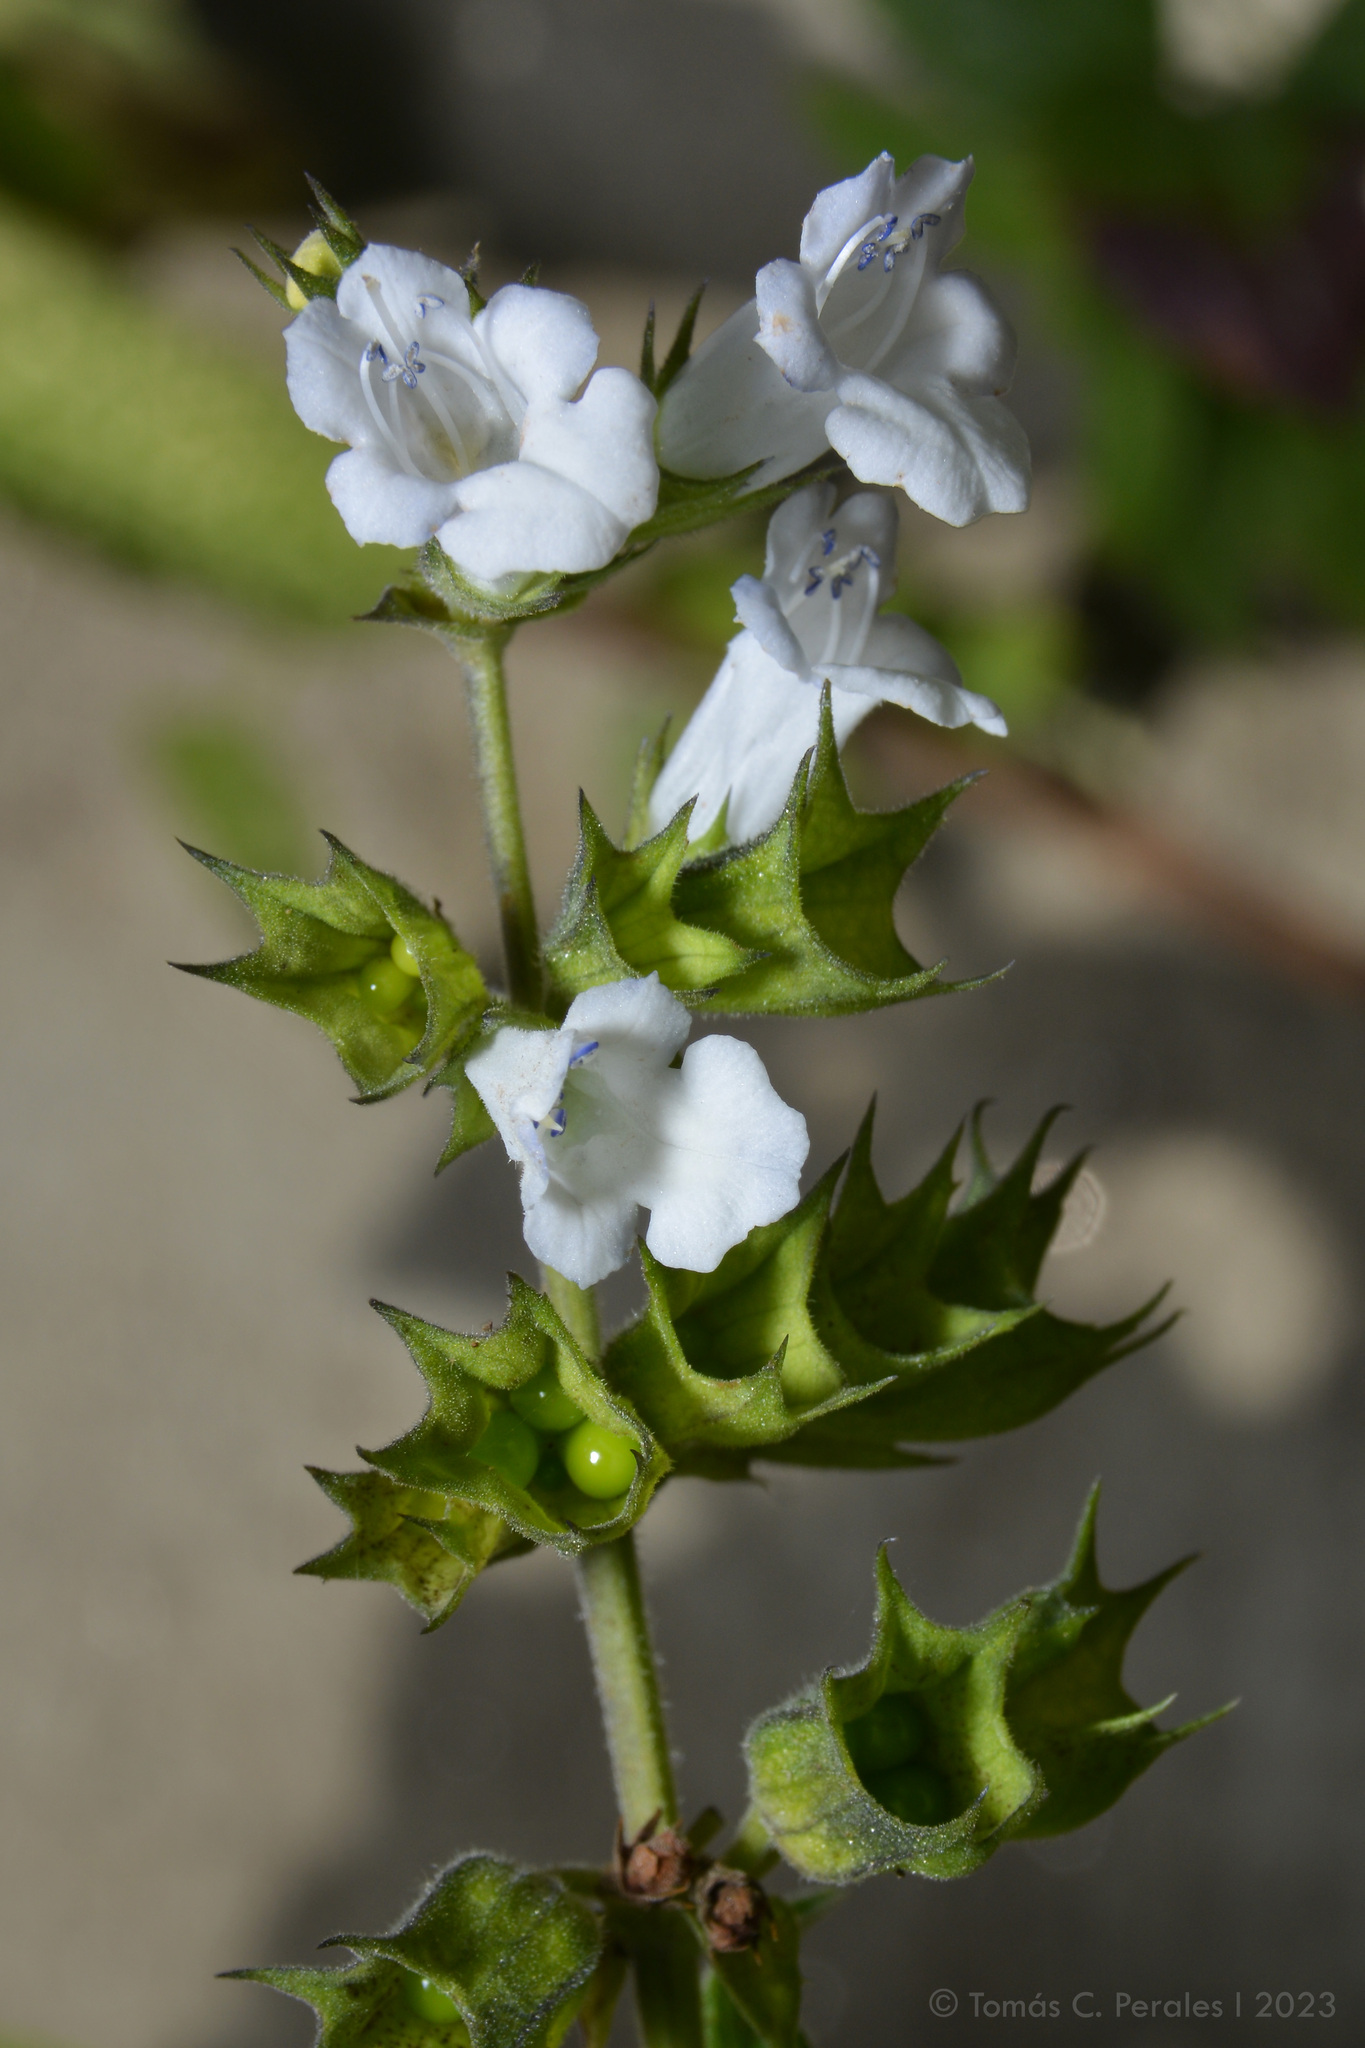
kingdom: Plantae
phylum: Tracheophyta
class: Magnoliopsida
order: Lamiales
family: Lamiaceae
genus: Lepechinia
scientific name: Lepechinia floribunda
